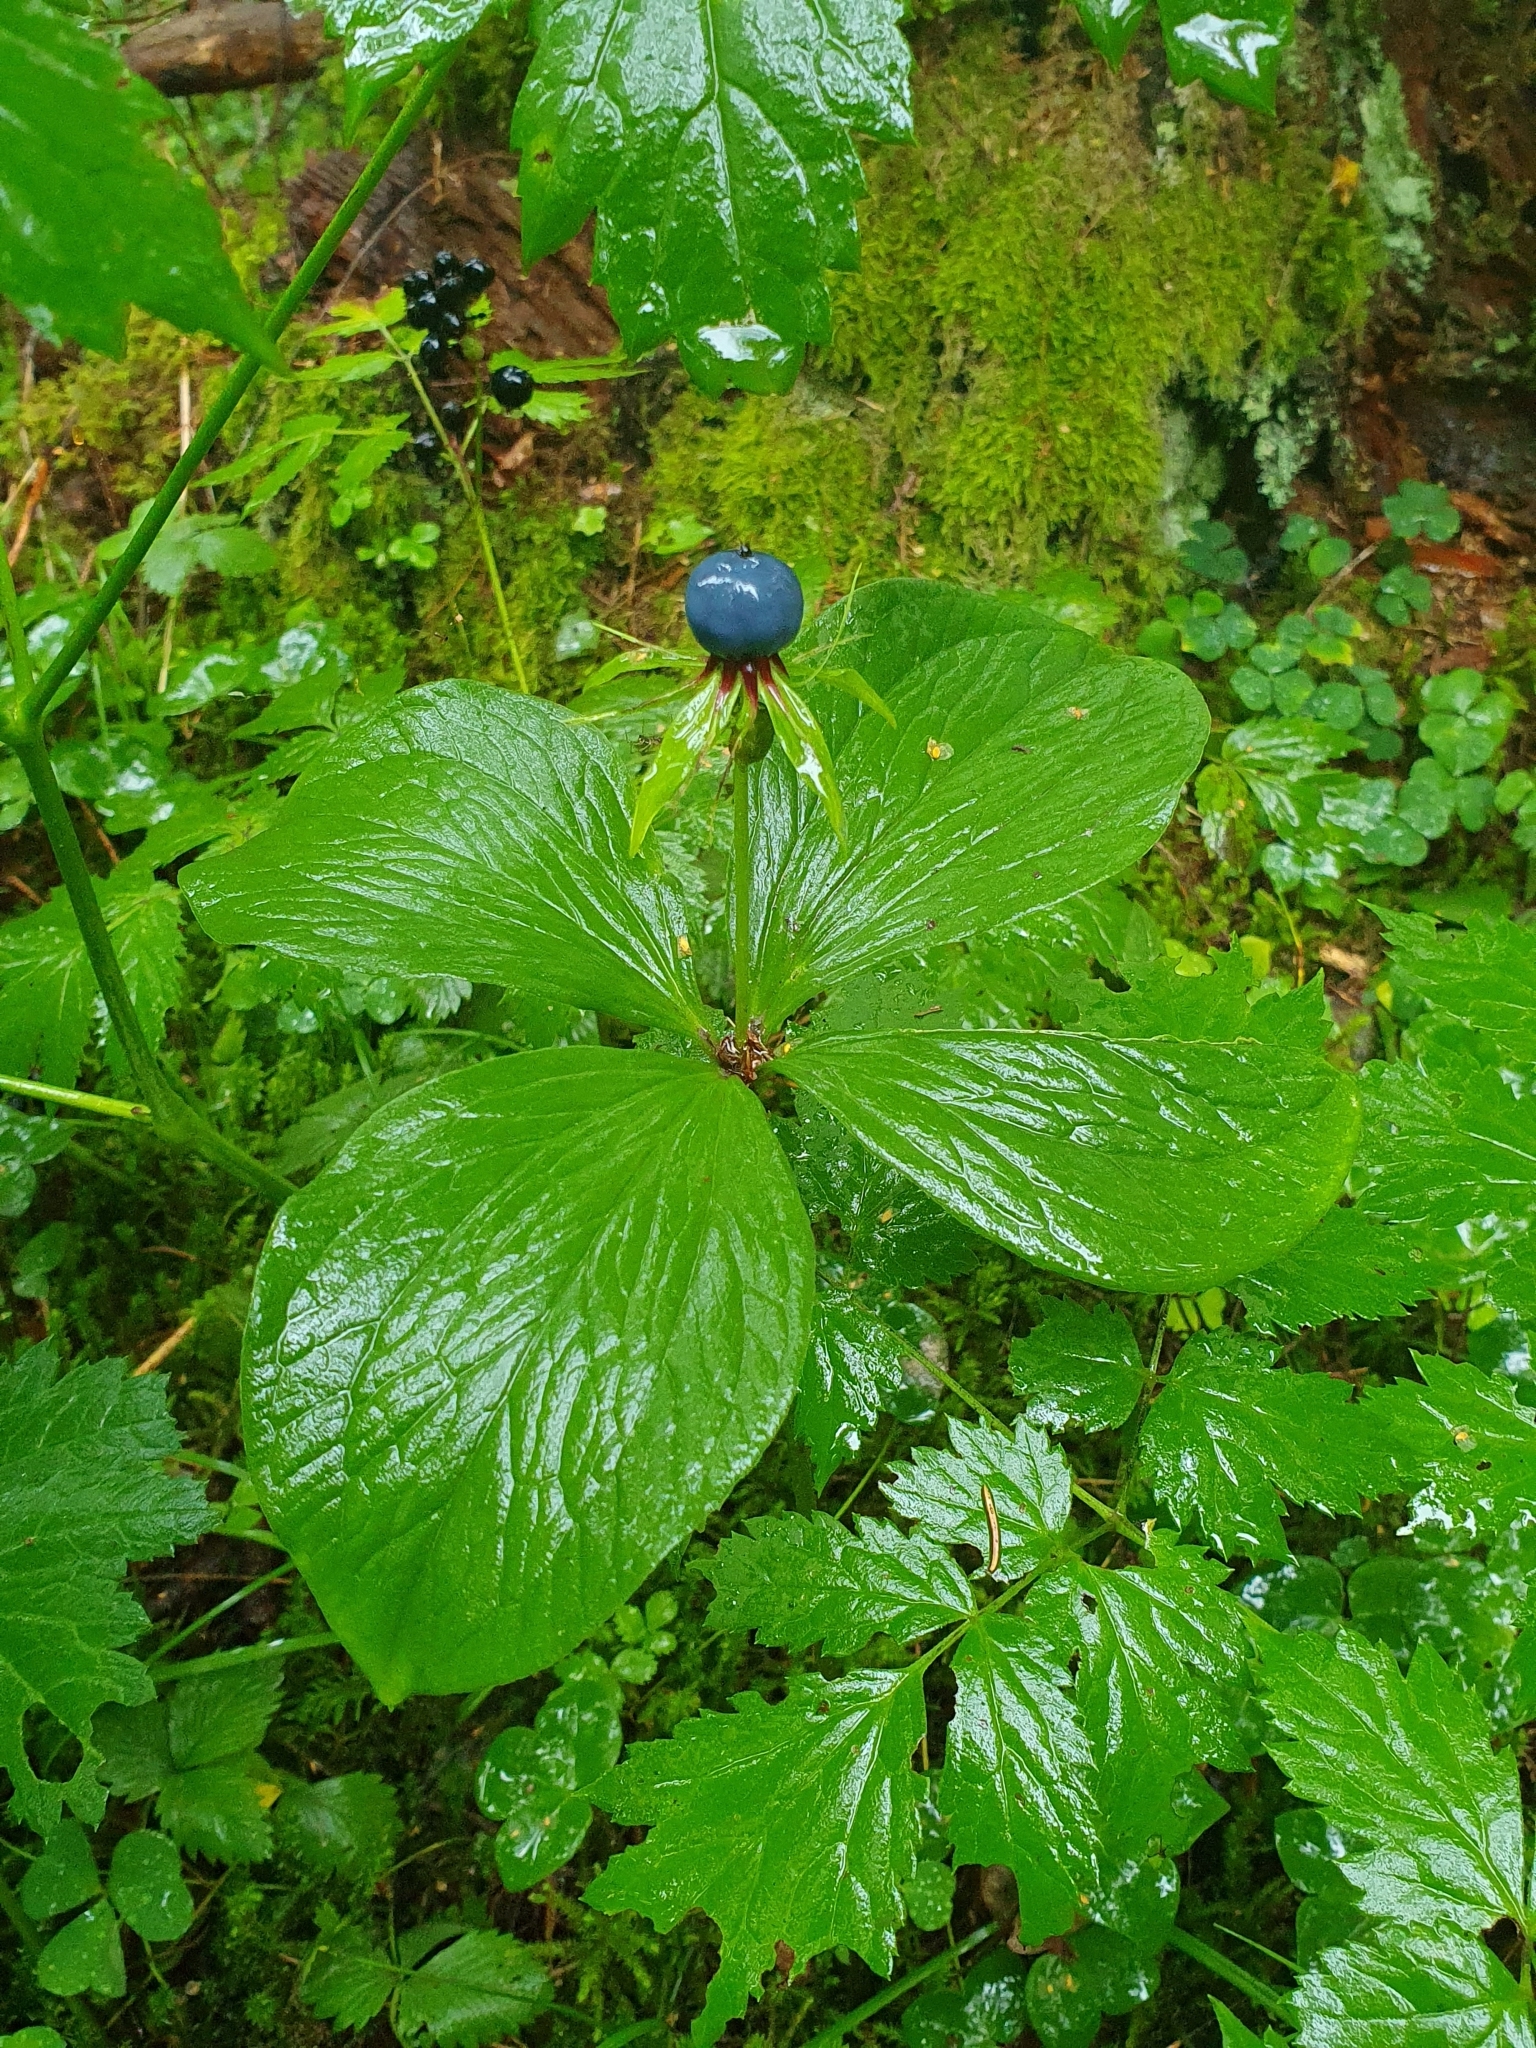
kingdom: Plantae
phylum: Tracheophyta
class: Liliopsida
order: Liliales
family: Melanthiaceae
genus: Paris
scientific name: Paris quadrifolia
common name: Herb-paris
